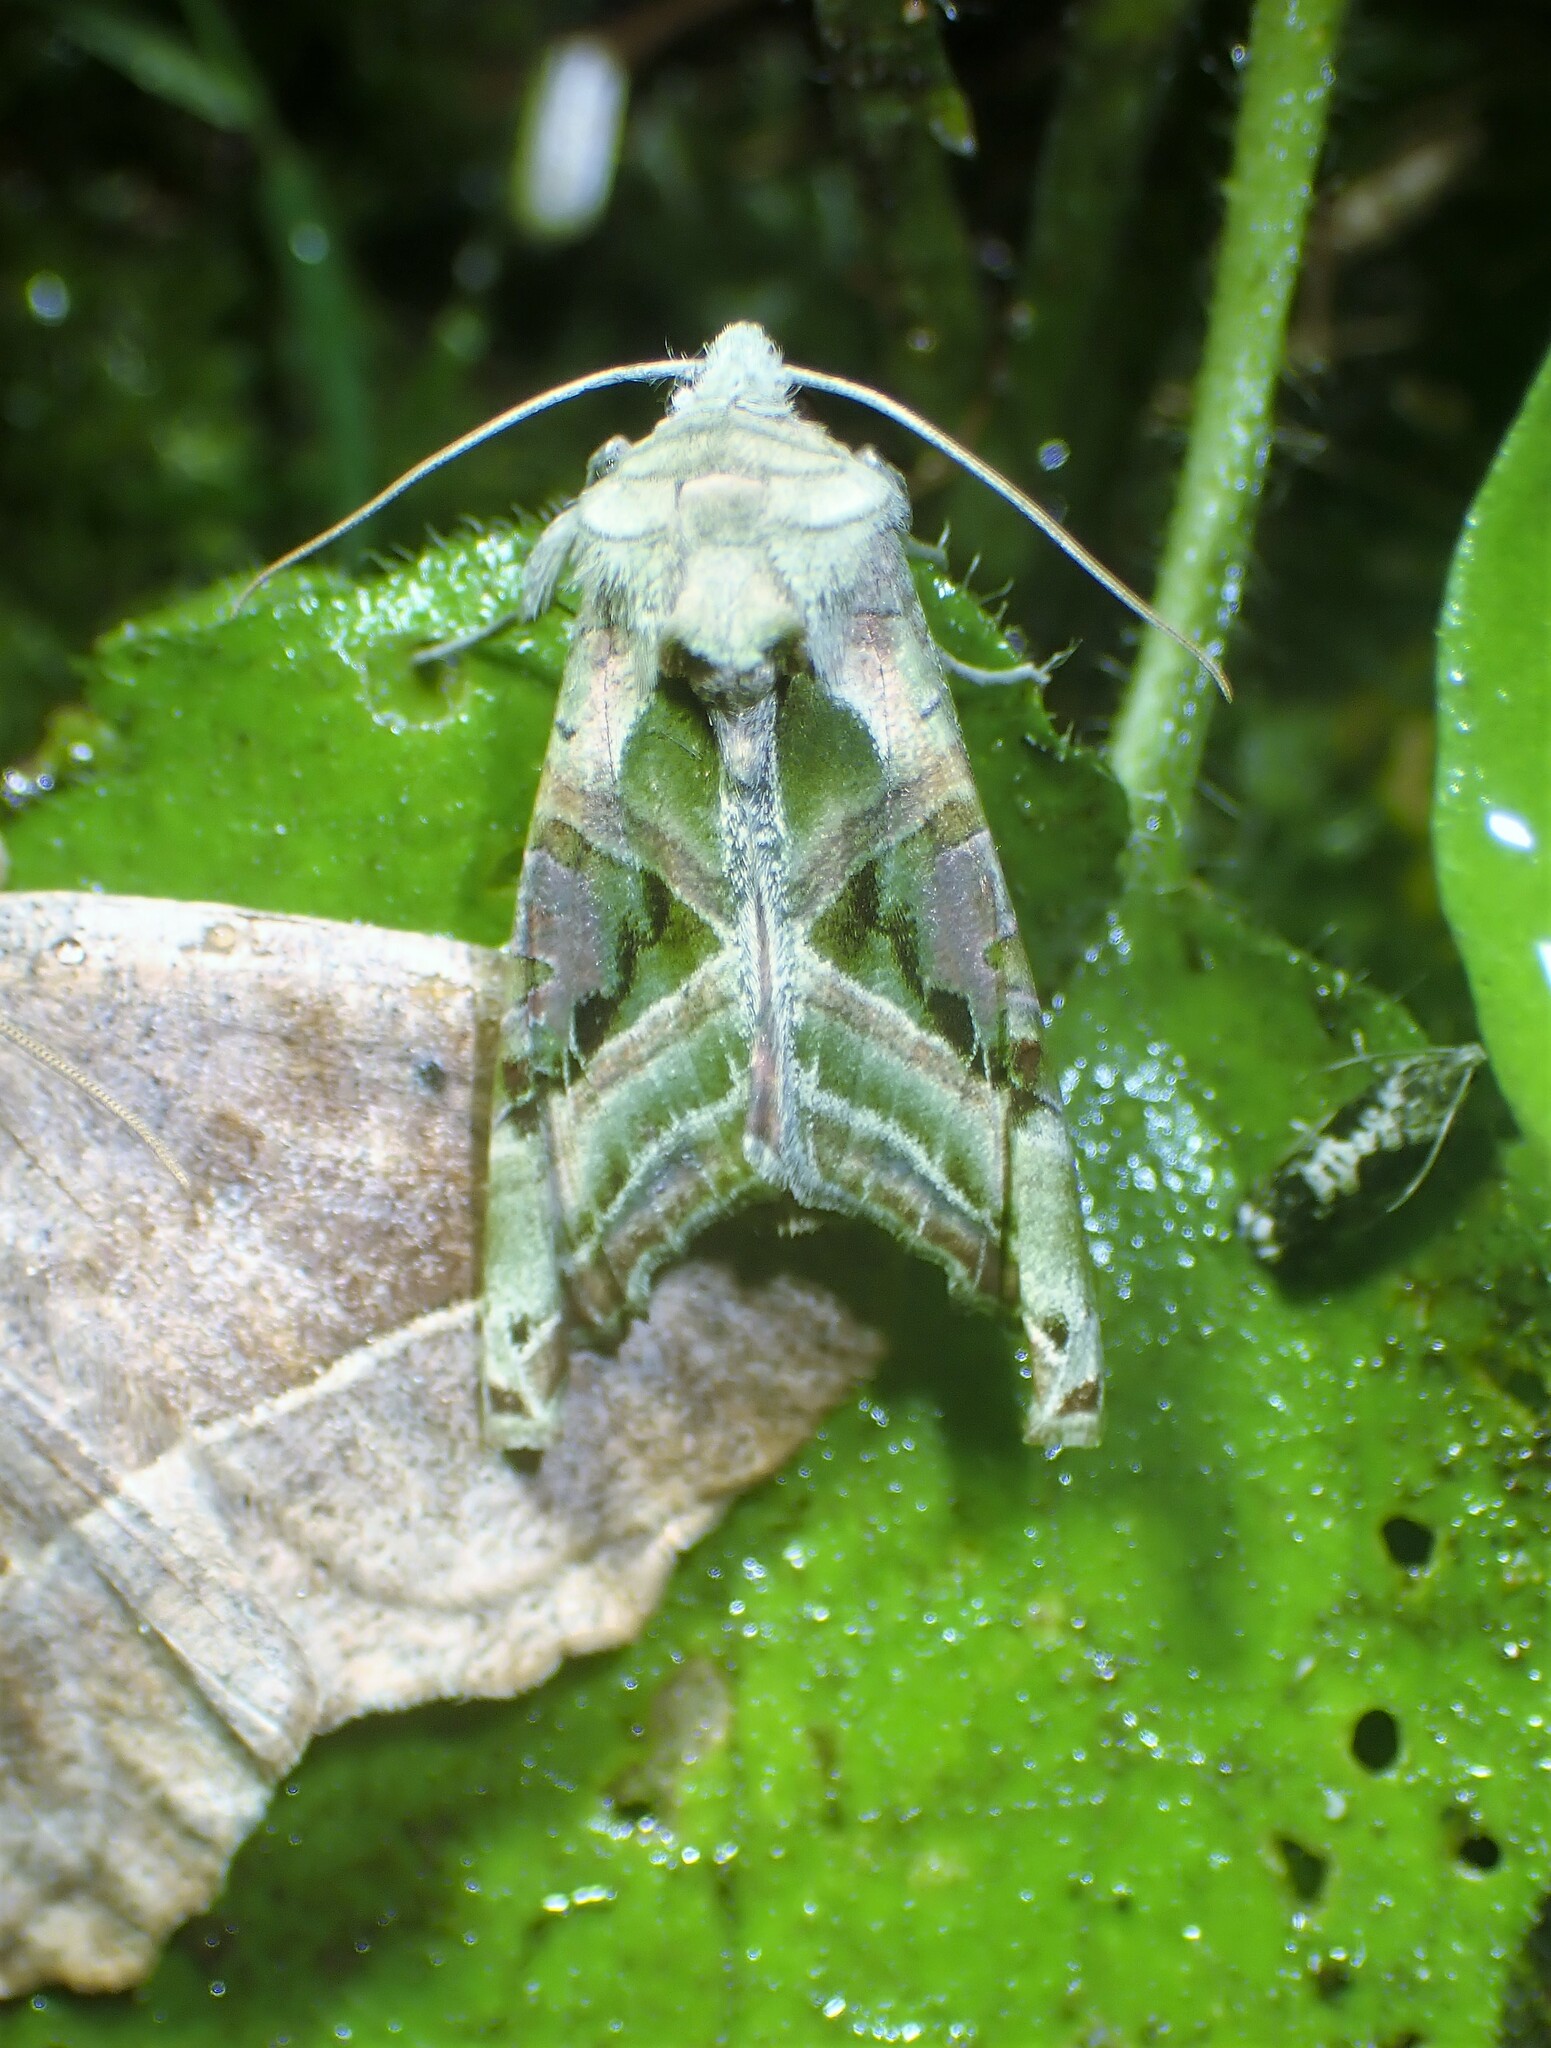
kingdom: Animalia
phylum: Arthropoda
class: Insecta
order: Lepidoptera
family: Noctuidae
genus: Phlogophora
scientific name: Phlogophora iris
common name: Olive angle shades
